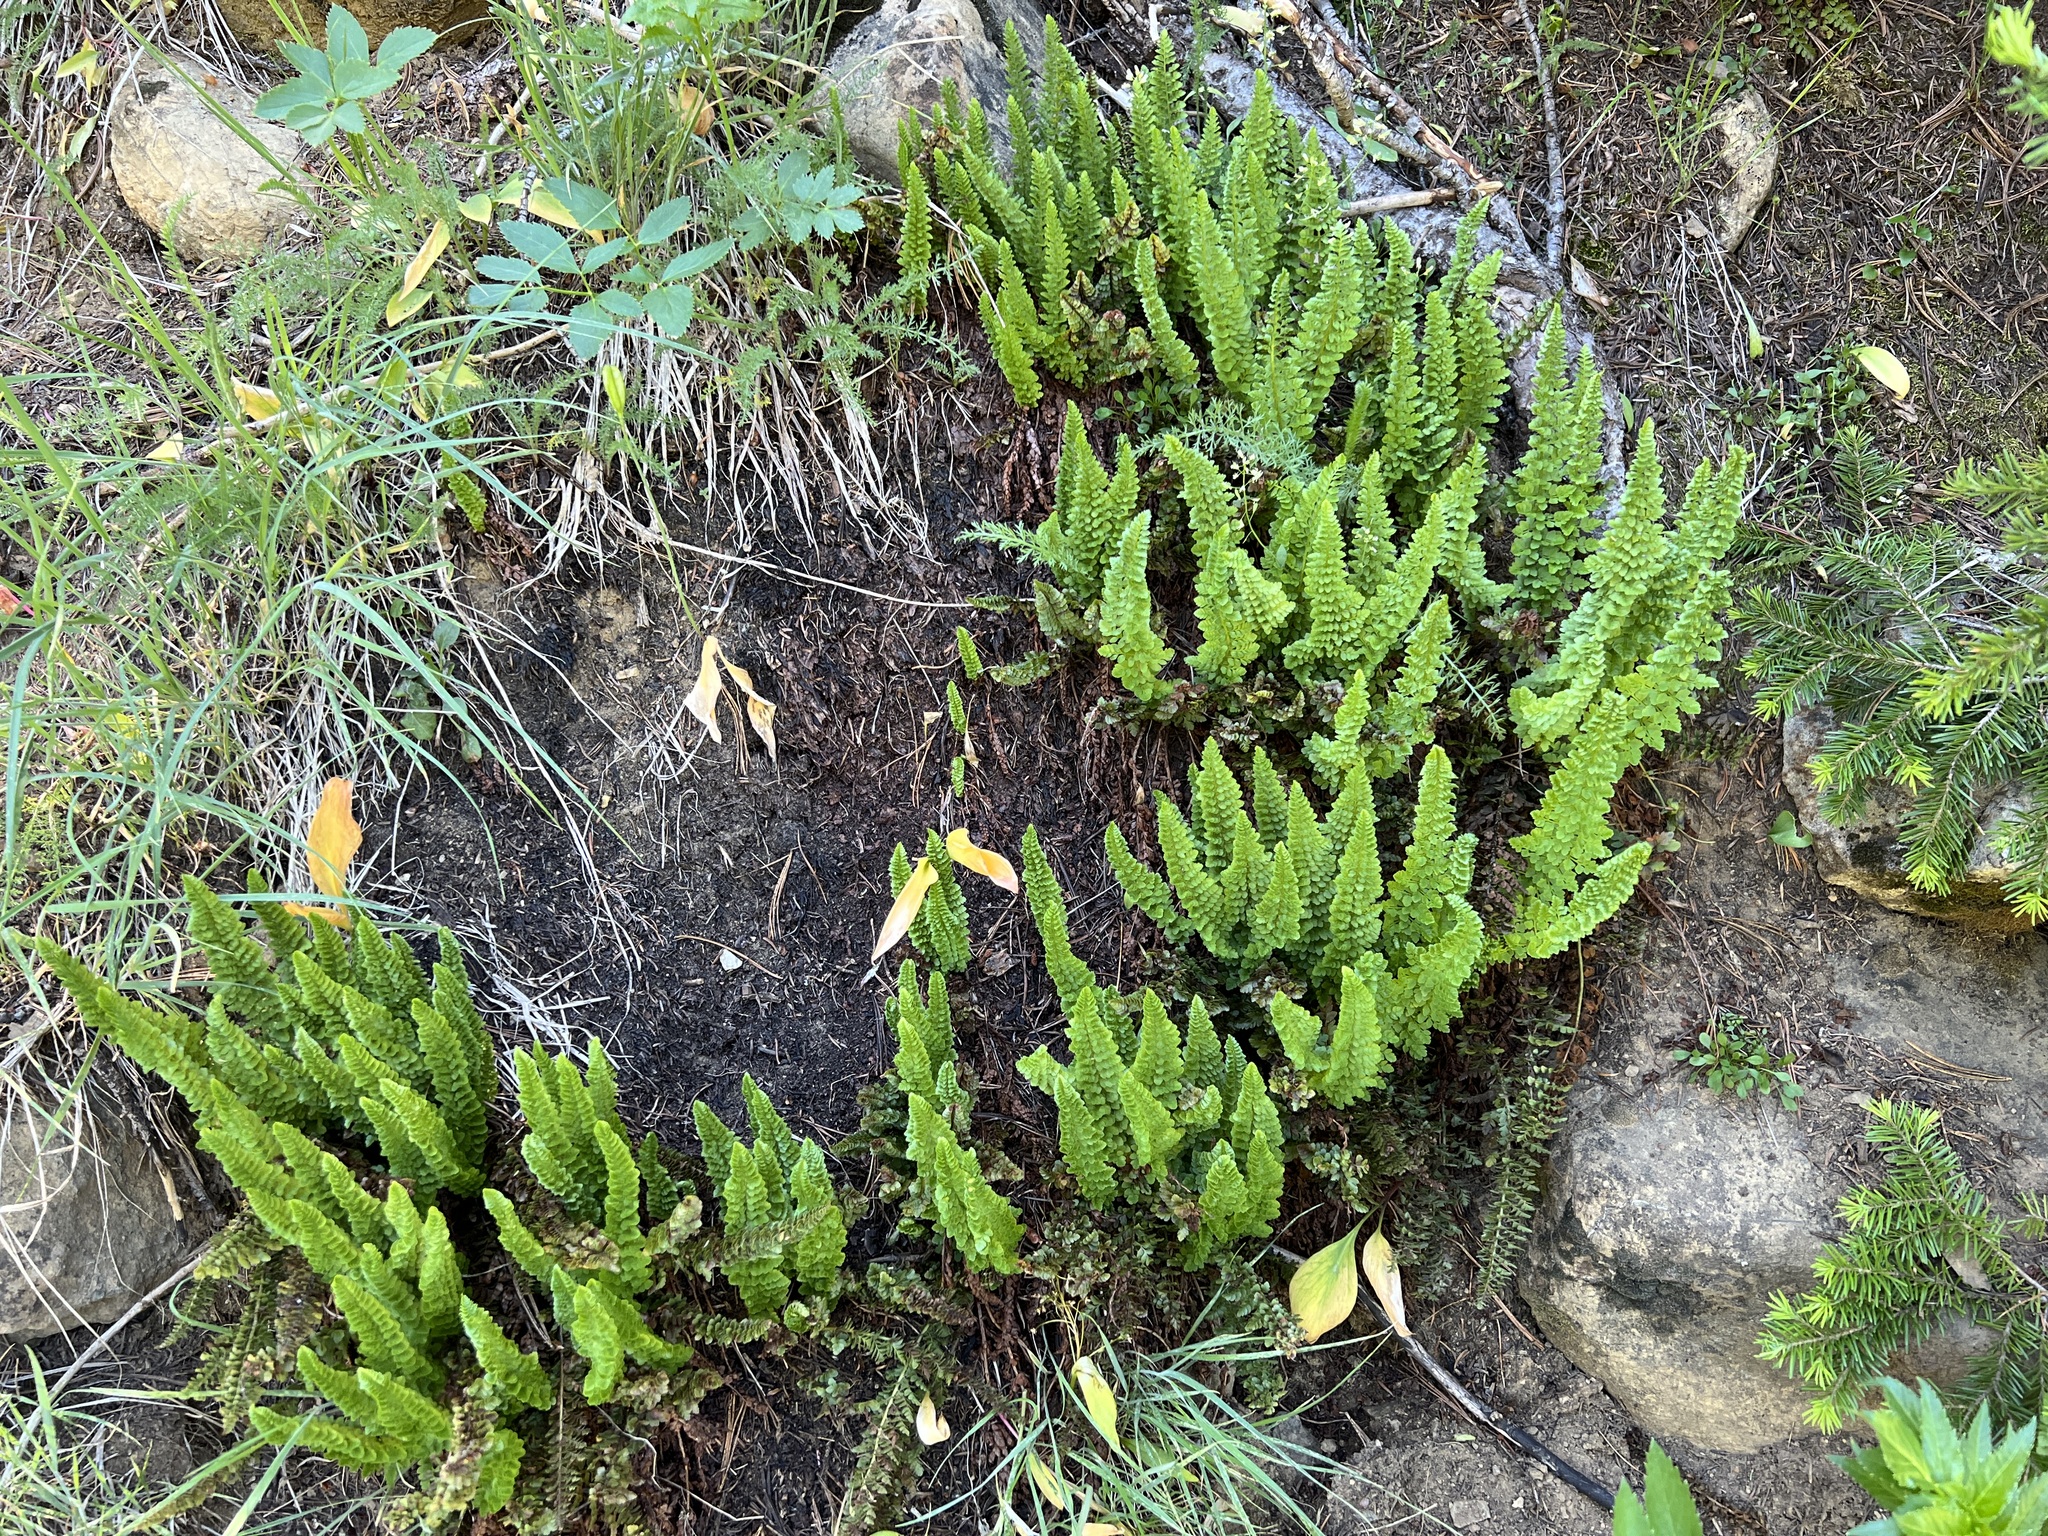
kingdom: Plantae
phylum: Tracheophyta
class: Polypodiopsida
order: Polypodiales
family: Dryopteridaceae
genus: Polystichum
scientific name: Polystichum lemmonii
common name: Lemmon's holly fern
